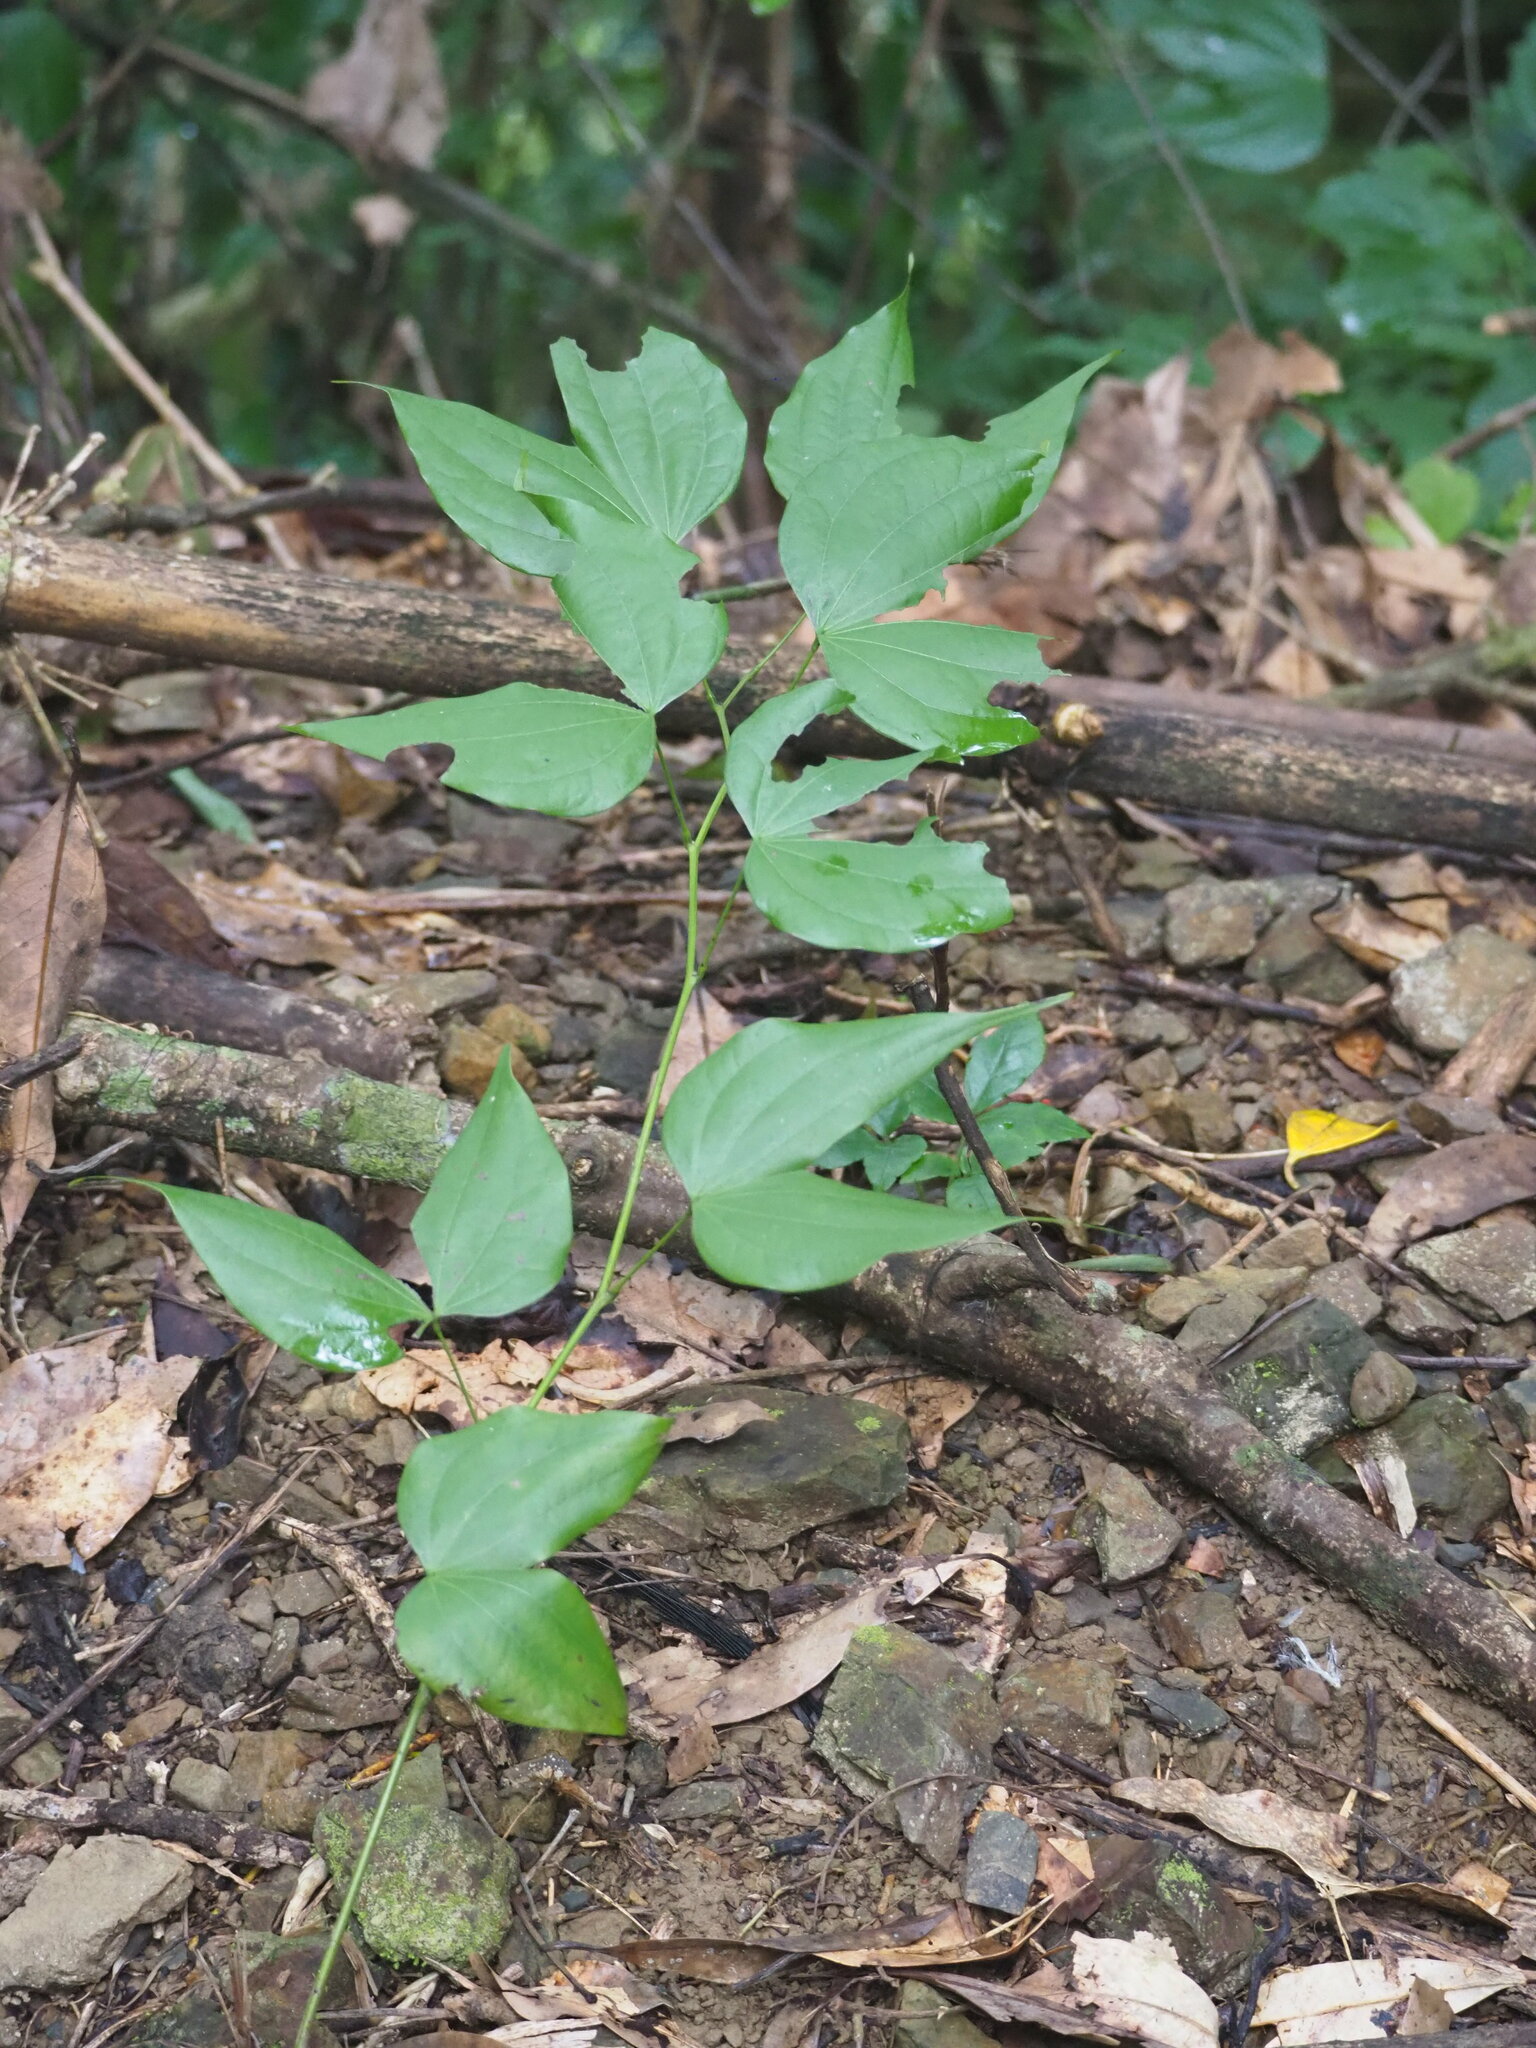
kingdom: Plantae
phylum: Tracheophyta
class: Magnoliopsida
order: Fabales
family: Fabaceae
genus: Phanera
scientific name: Phanera championii
